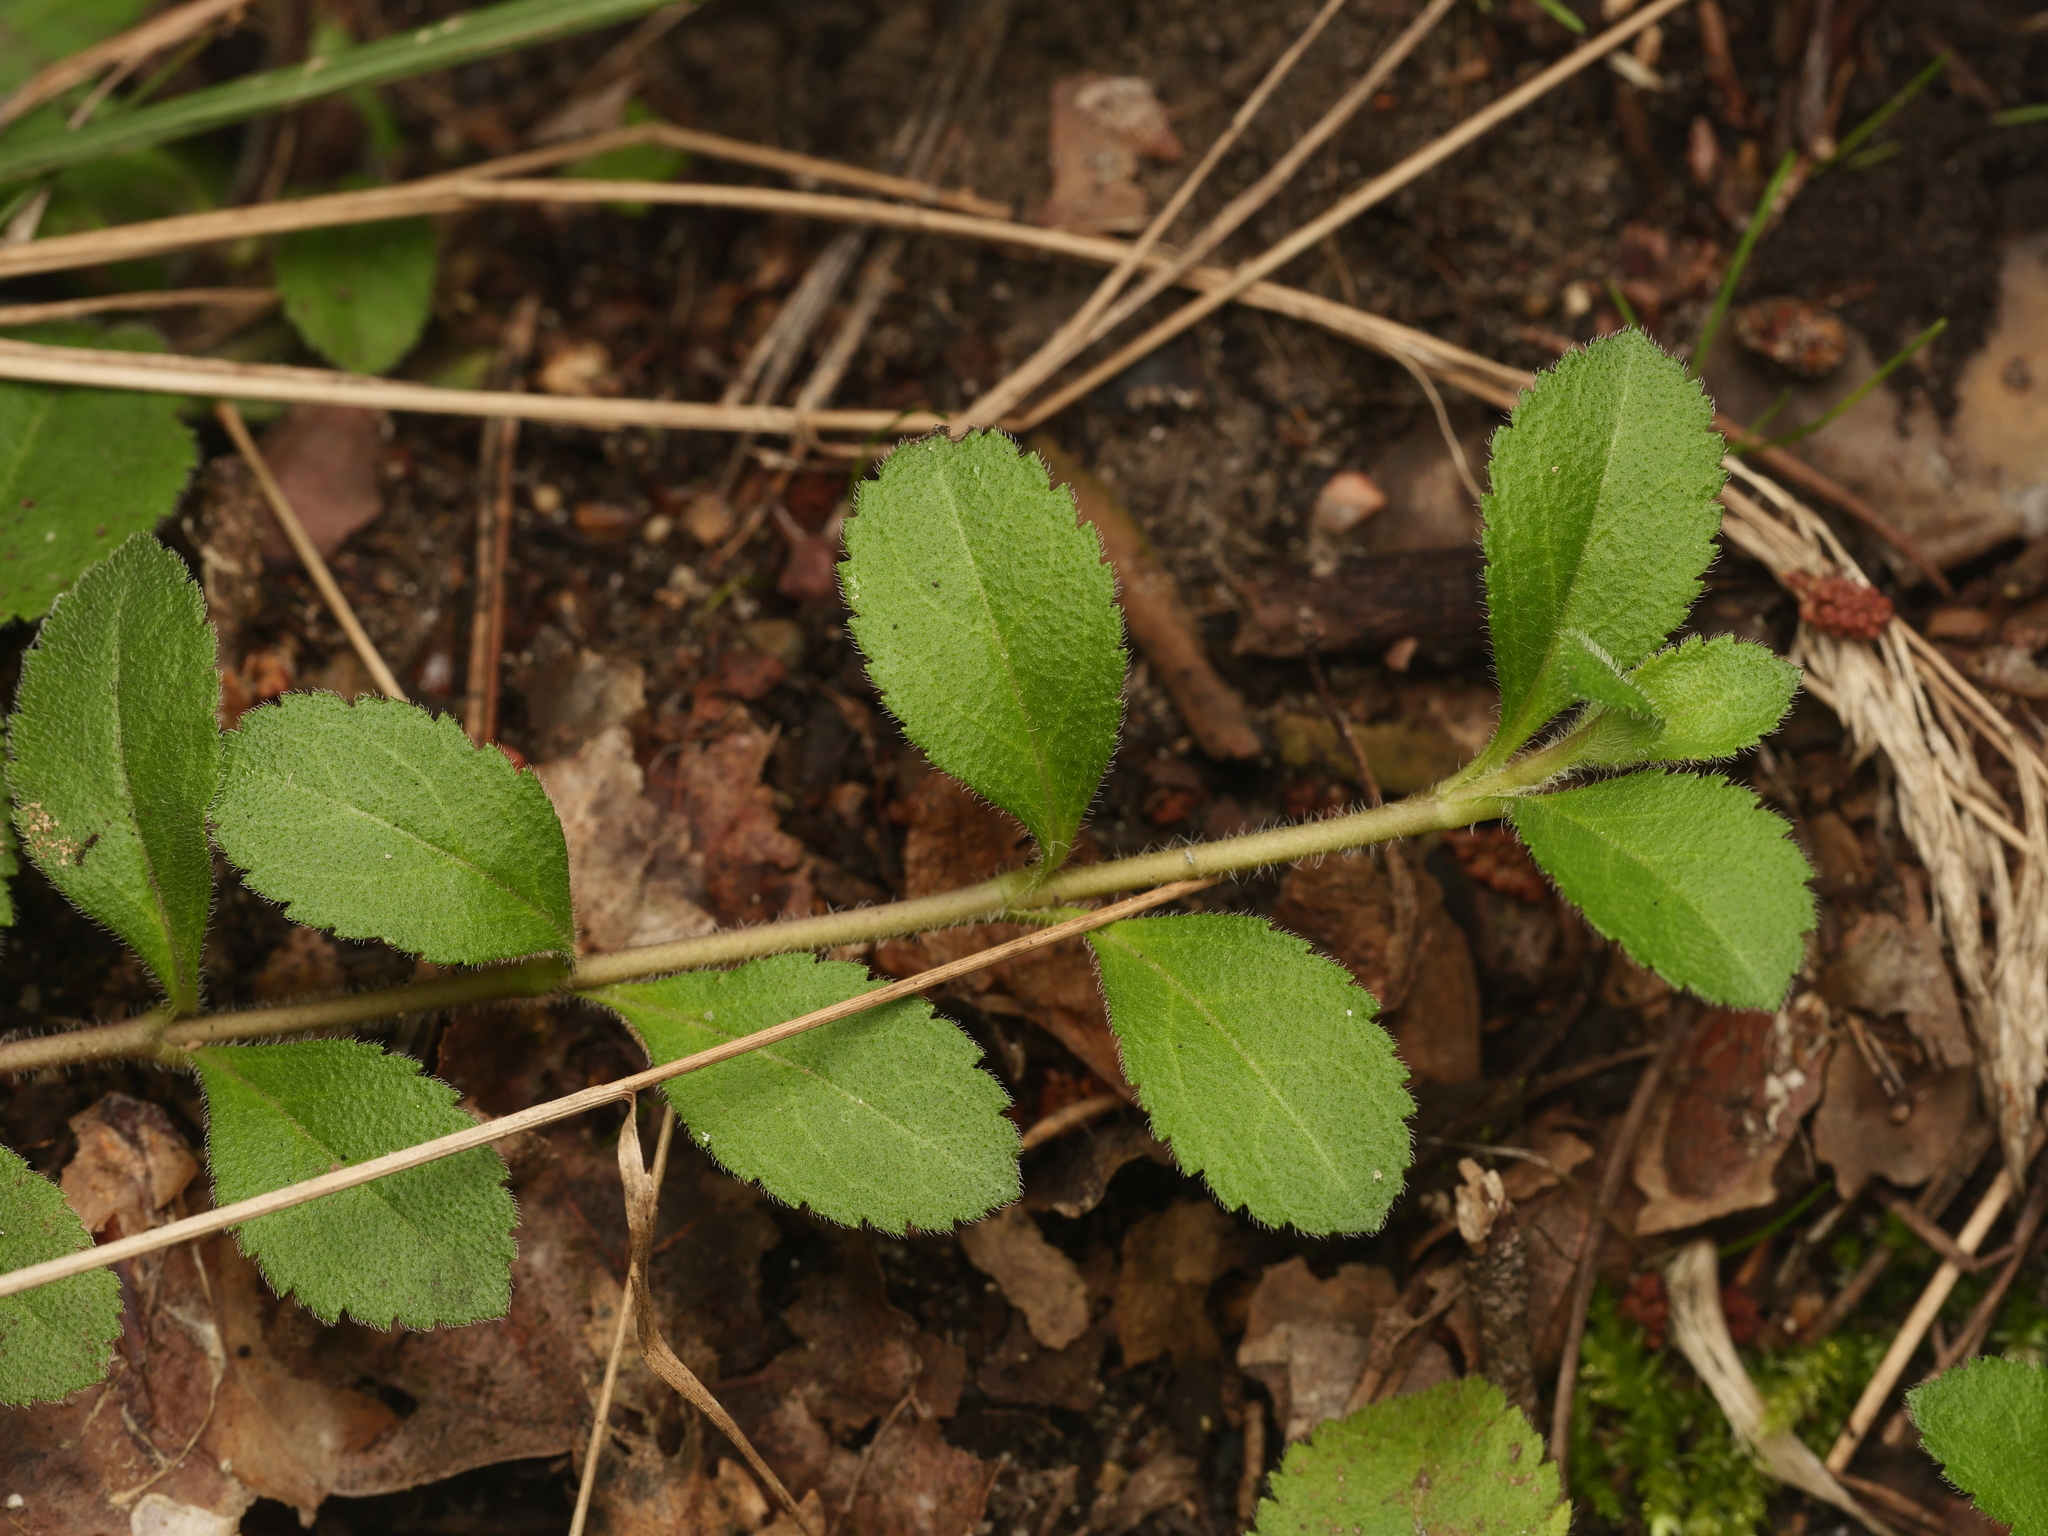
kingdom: Plantae
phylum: Tracheophyta
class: Magnoliopsida
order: Lamiales
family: Plantaginaceae
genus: Veronica
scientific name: Veronica officinalis
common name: Common speedwell
